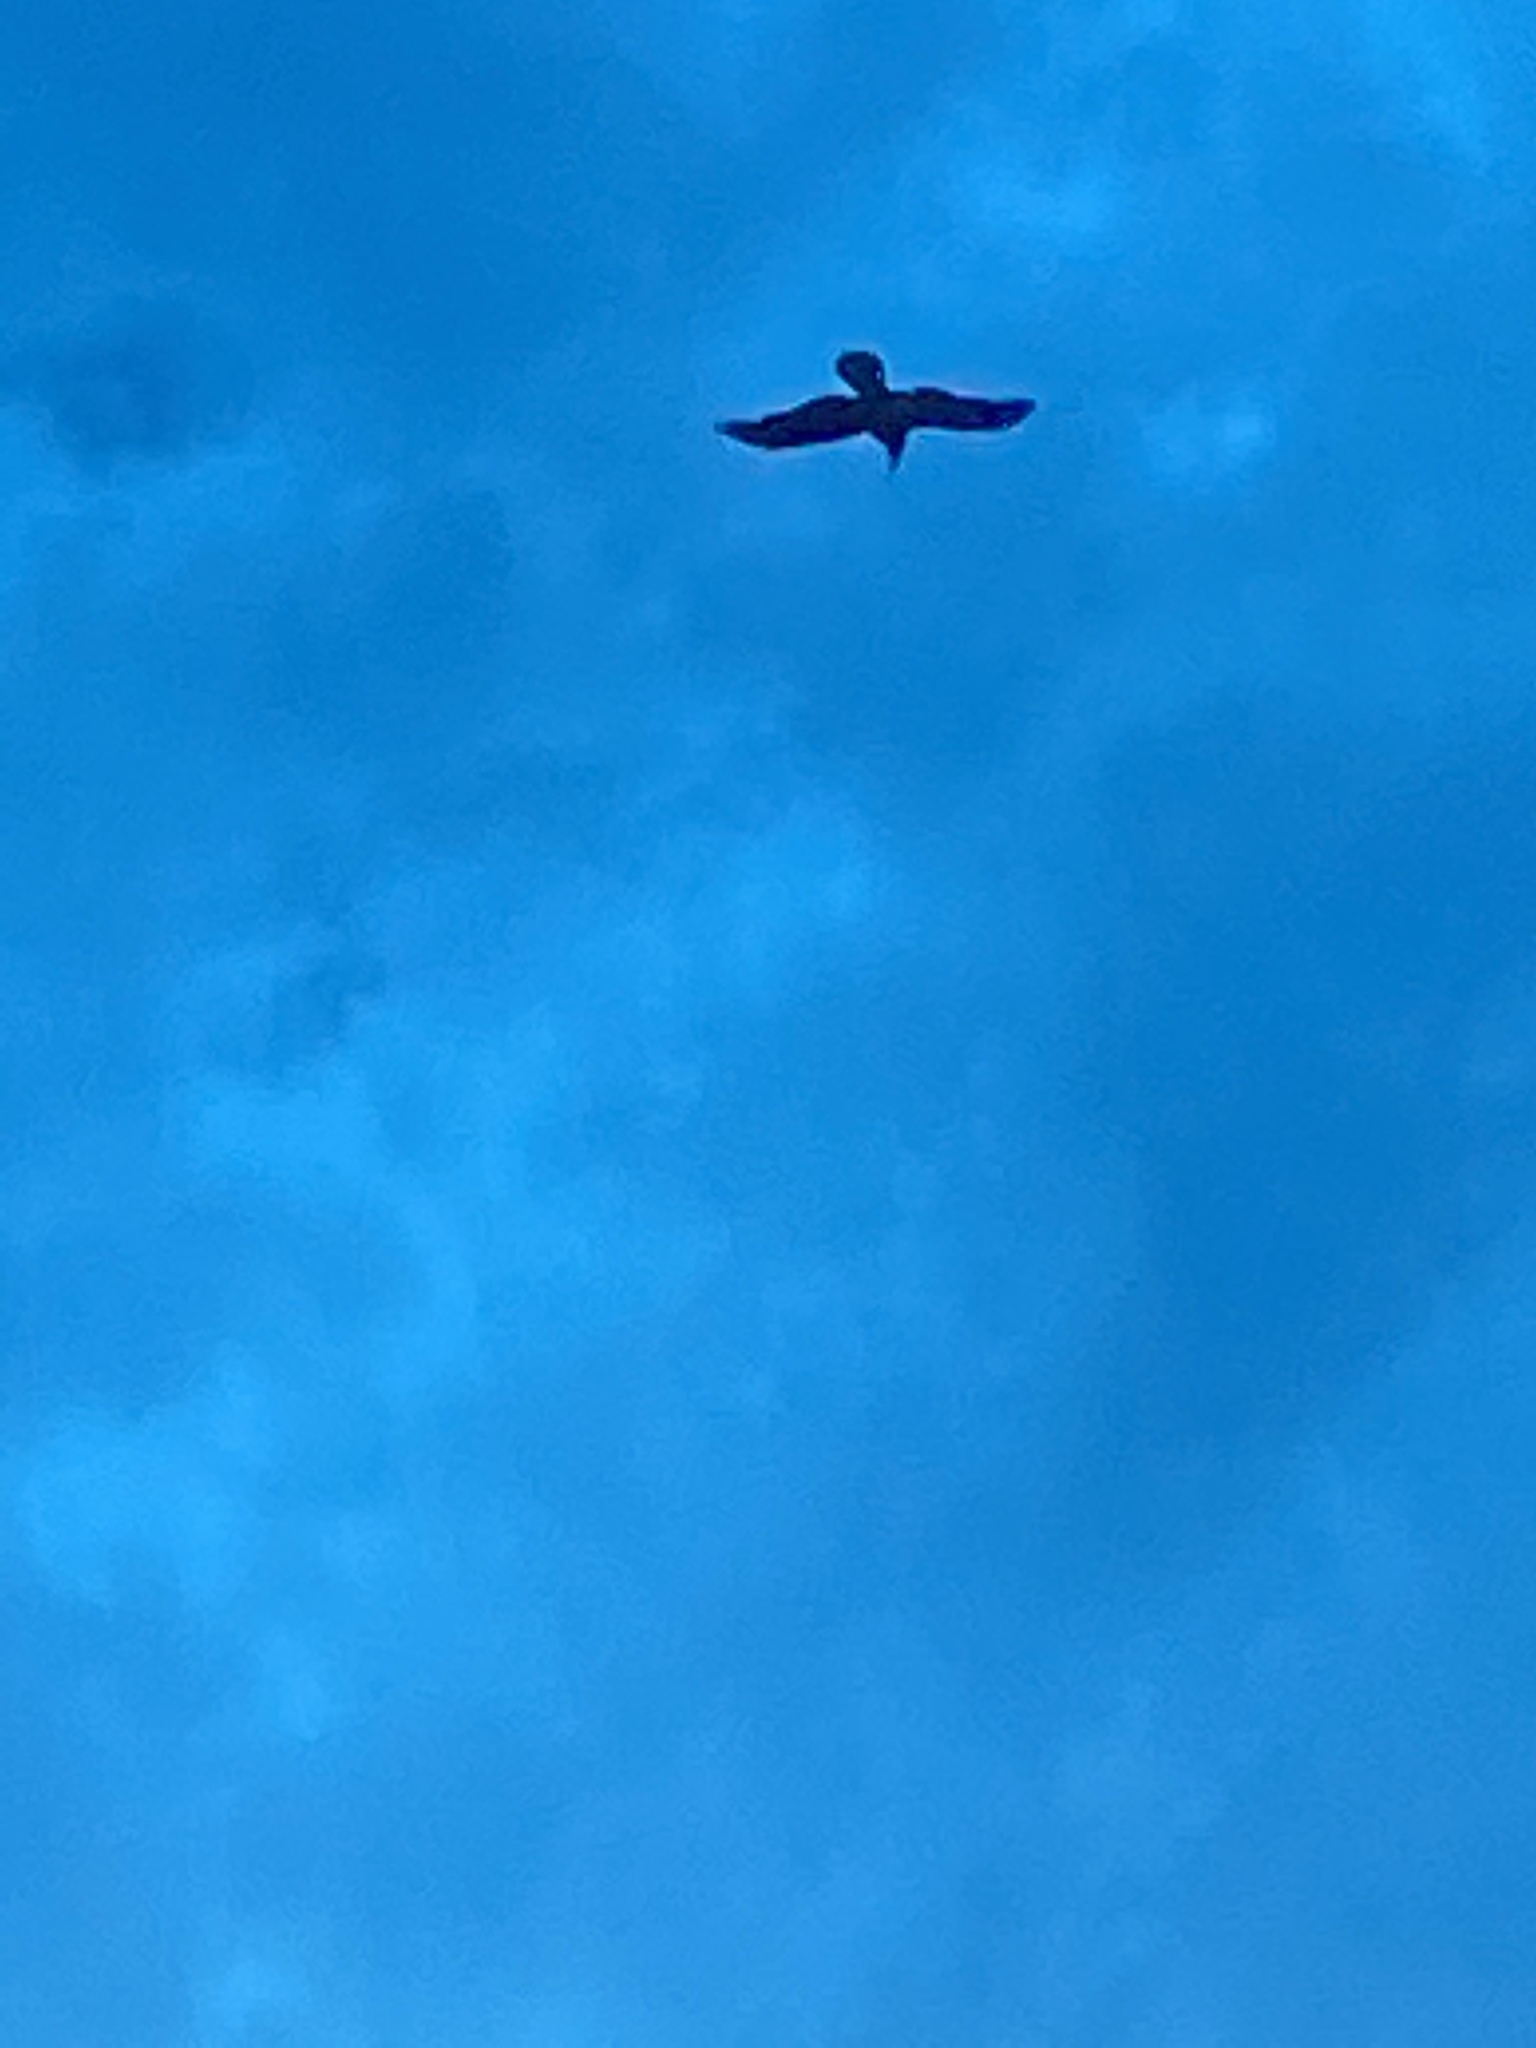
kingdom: Animalia
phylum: Chordata
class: Aves
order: Passeriformes
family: Corvidae
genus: Corvus
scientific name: Corvus corax
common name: Common raven
